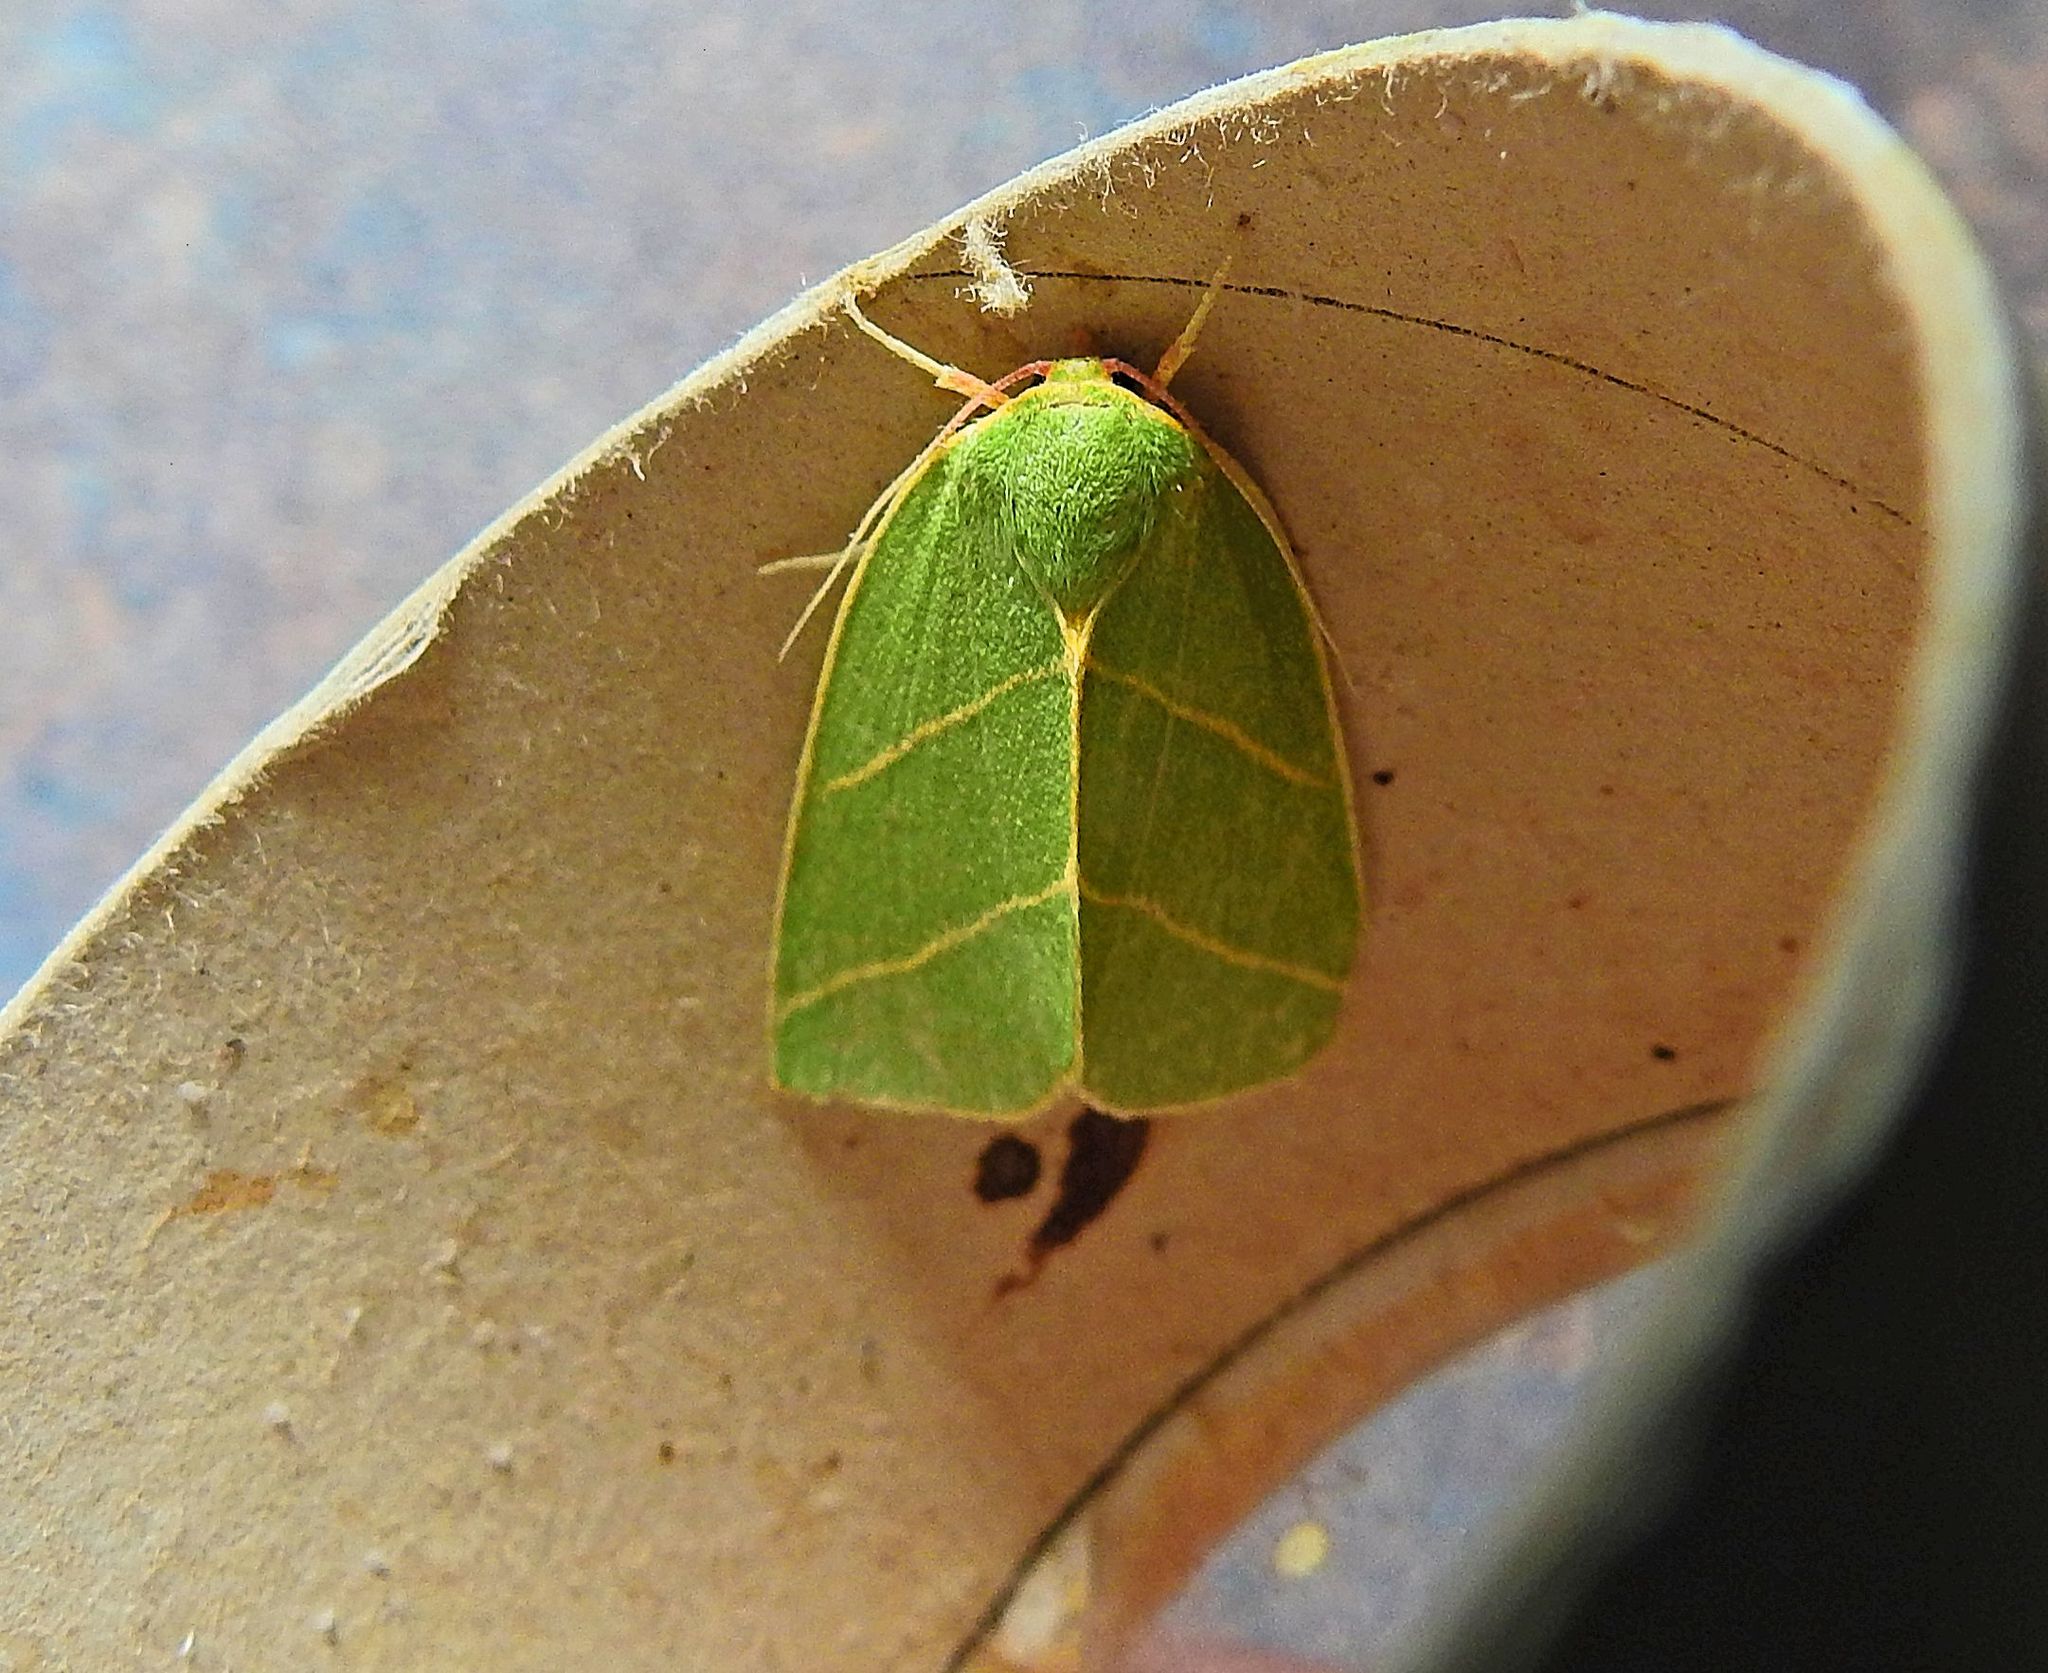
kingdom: Animalia
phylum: Arthropoda
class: Insecta
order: Lepidoptera
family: Nolidae
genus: Bena
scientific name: Bena bicolorana
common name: Scarce silver-lines
